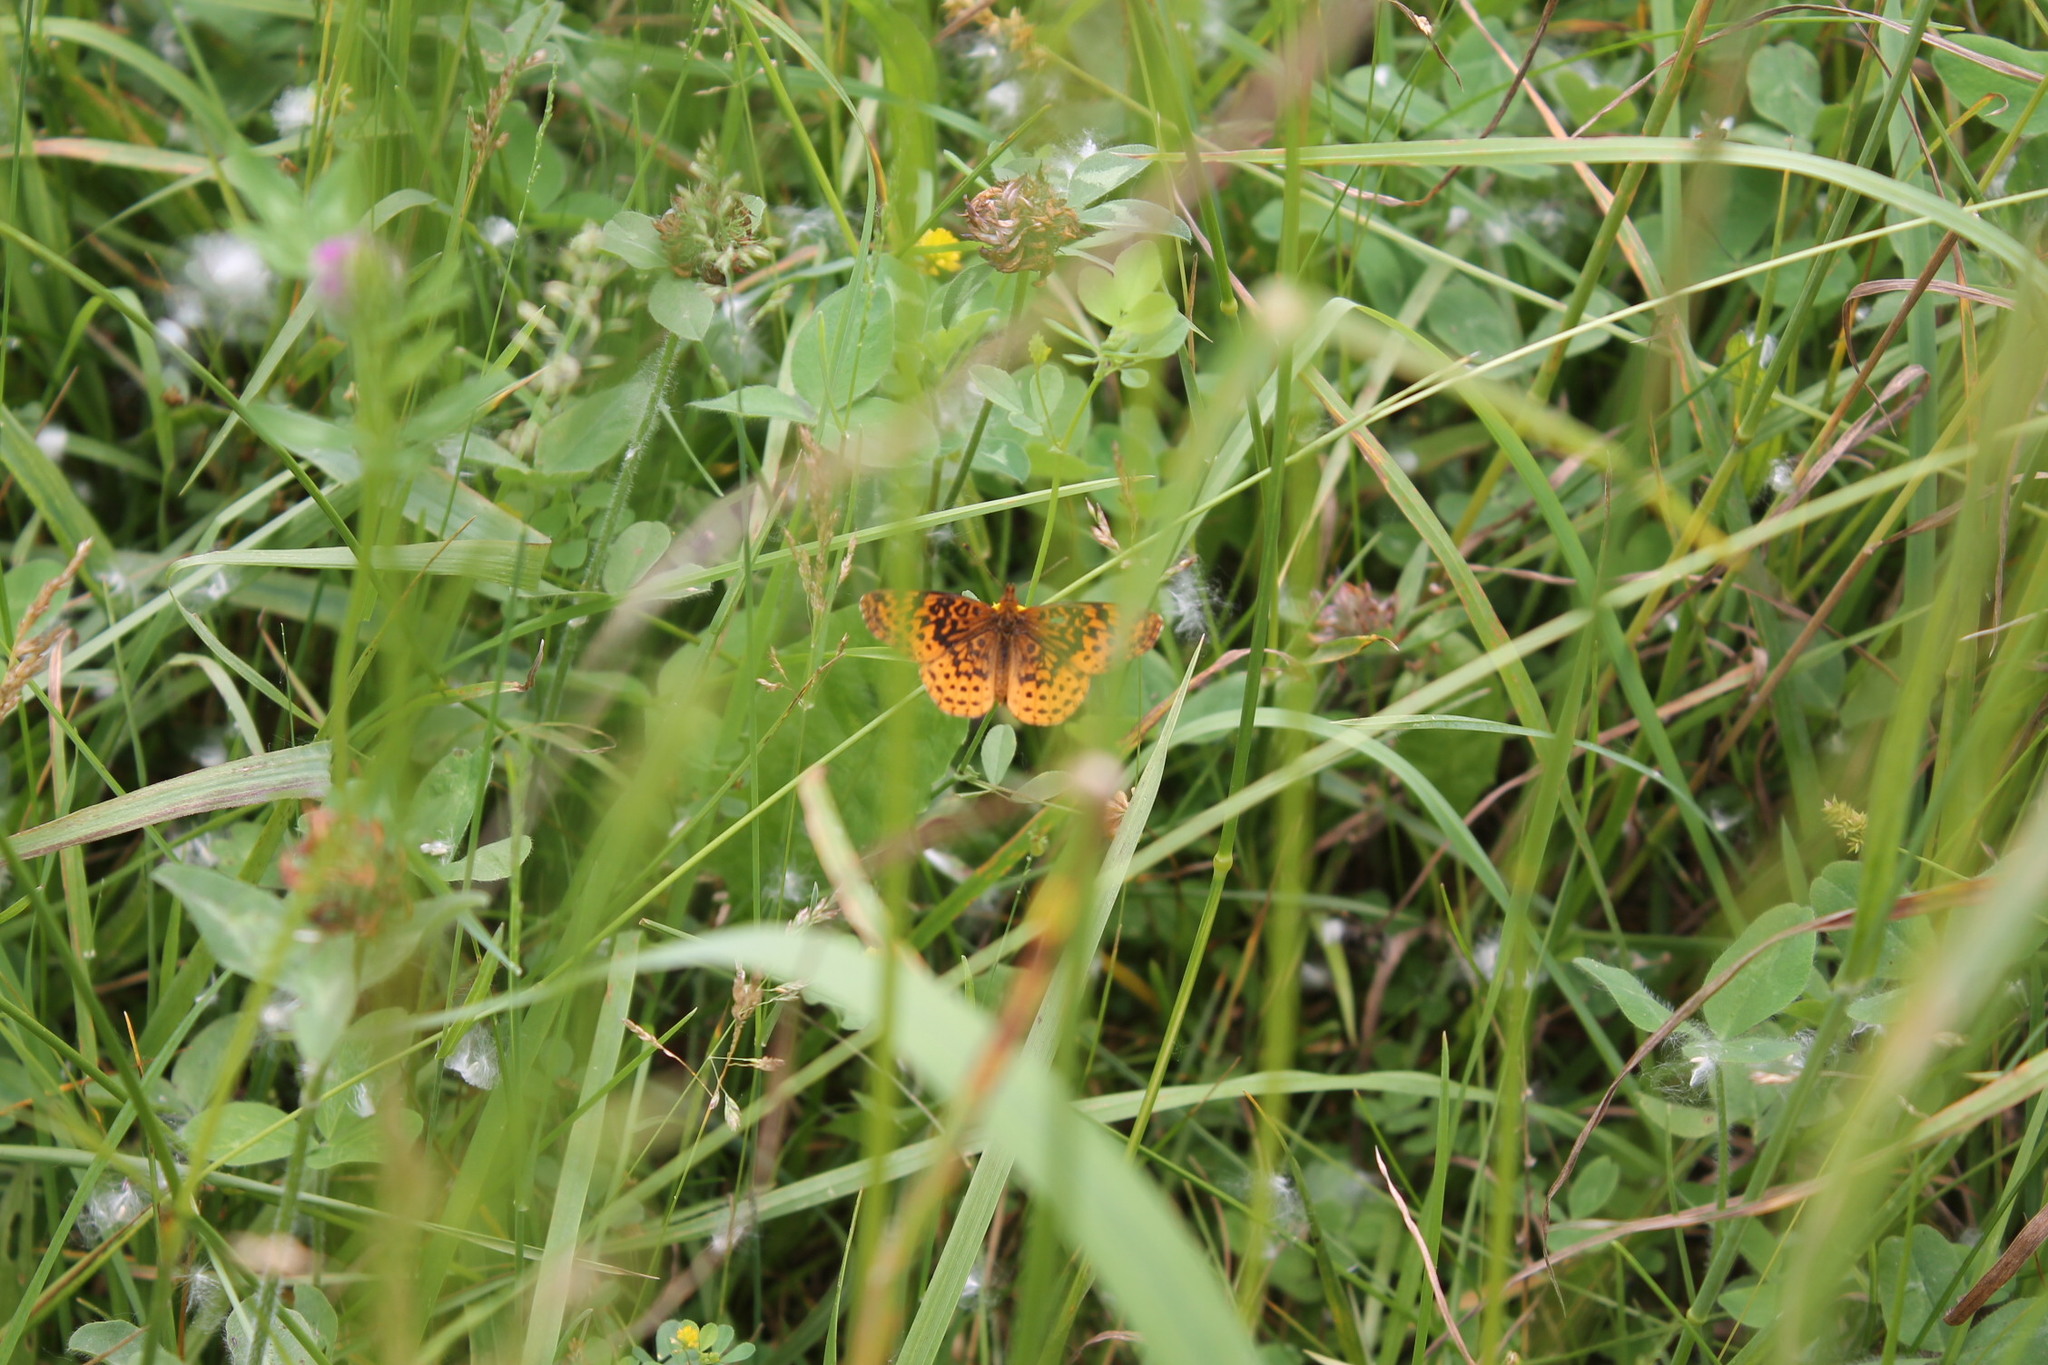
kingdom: Animalia
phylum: Arthropoda
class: Insecta
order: Lepidoptera
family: Nymphalidae
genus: Clossiana
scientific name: Clossiana toddi
